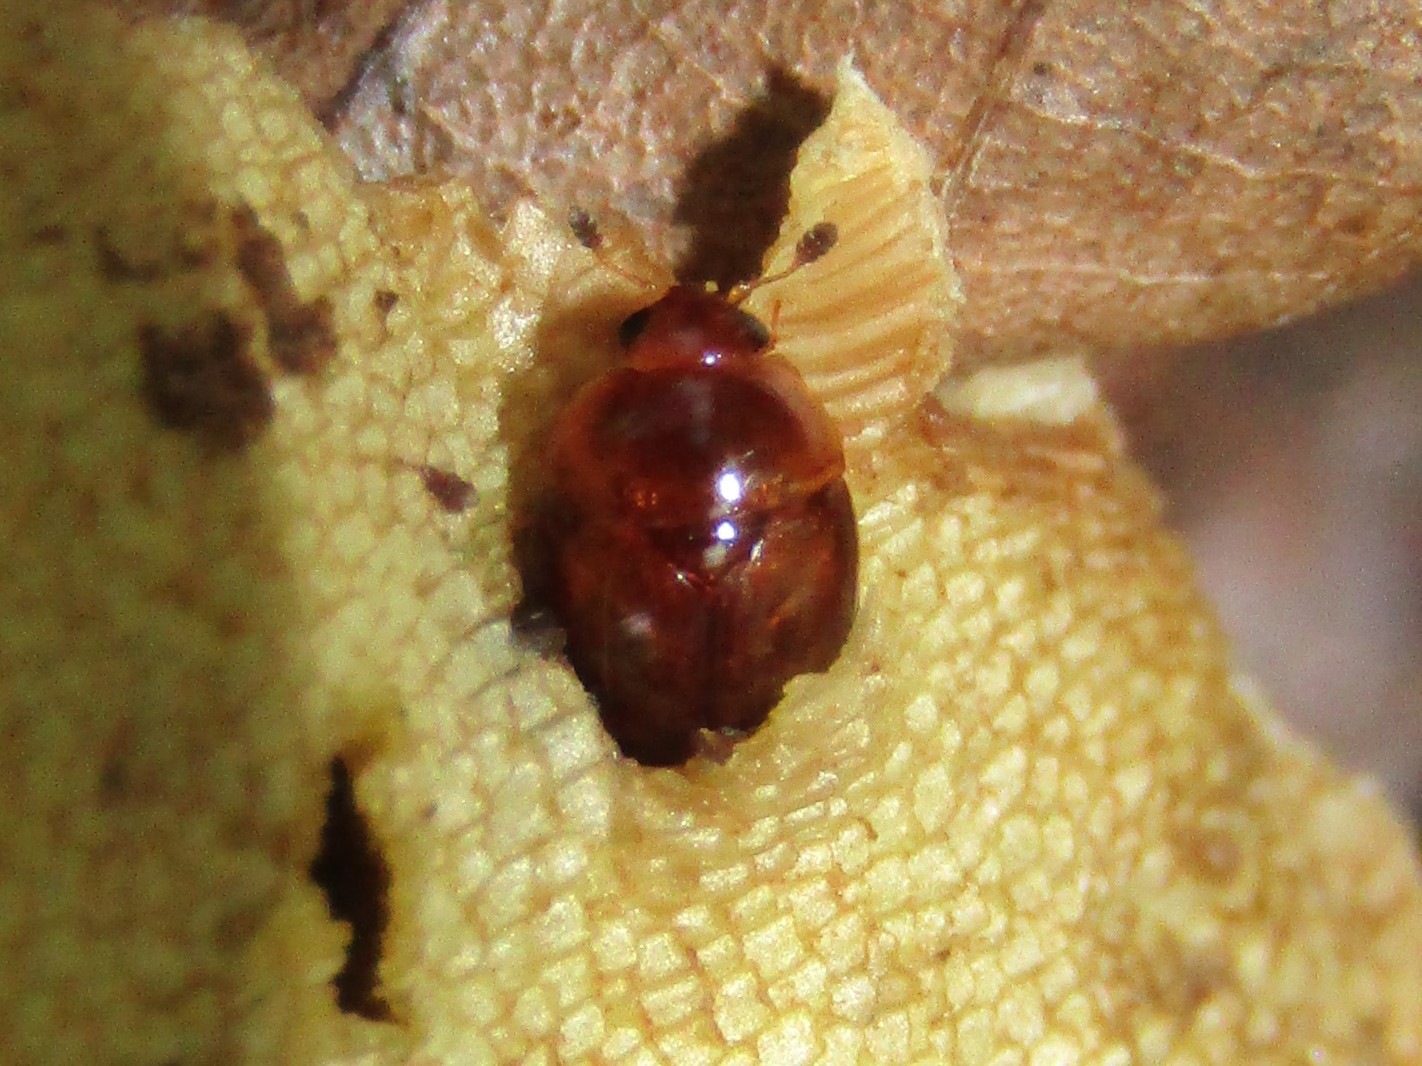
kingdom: Animalia
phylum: Arthropoda
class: Insecta
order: Coleoptera
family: Nitidulidae
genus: Pallodes
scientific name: Pallodes pallidus
